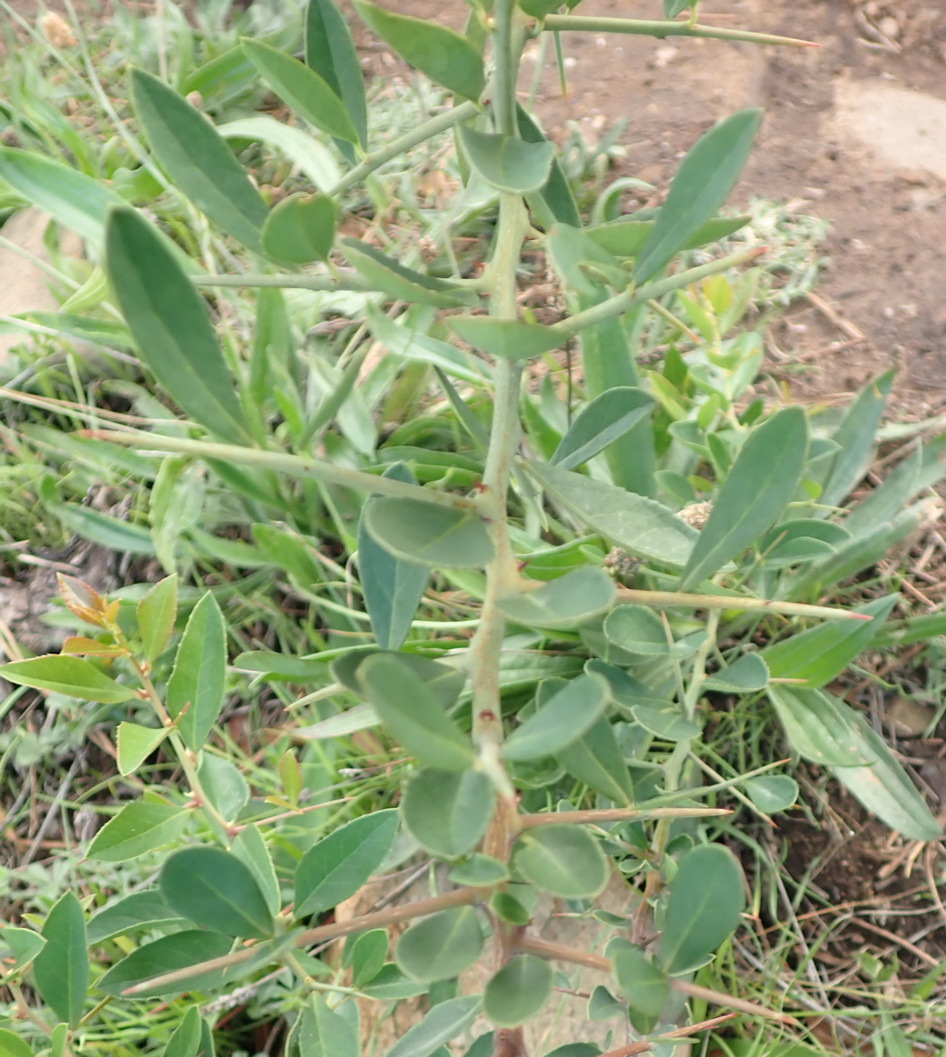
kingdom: Plantae
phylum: Tracheophyta
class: Magnoliopsida
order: Celastrales
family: Celastraceae
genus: Gymnosporia
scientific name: Gymnosporia buxifolia
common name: Common spike-thorn
